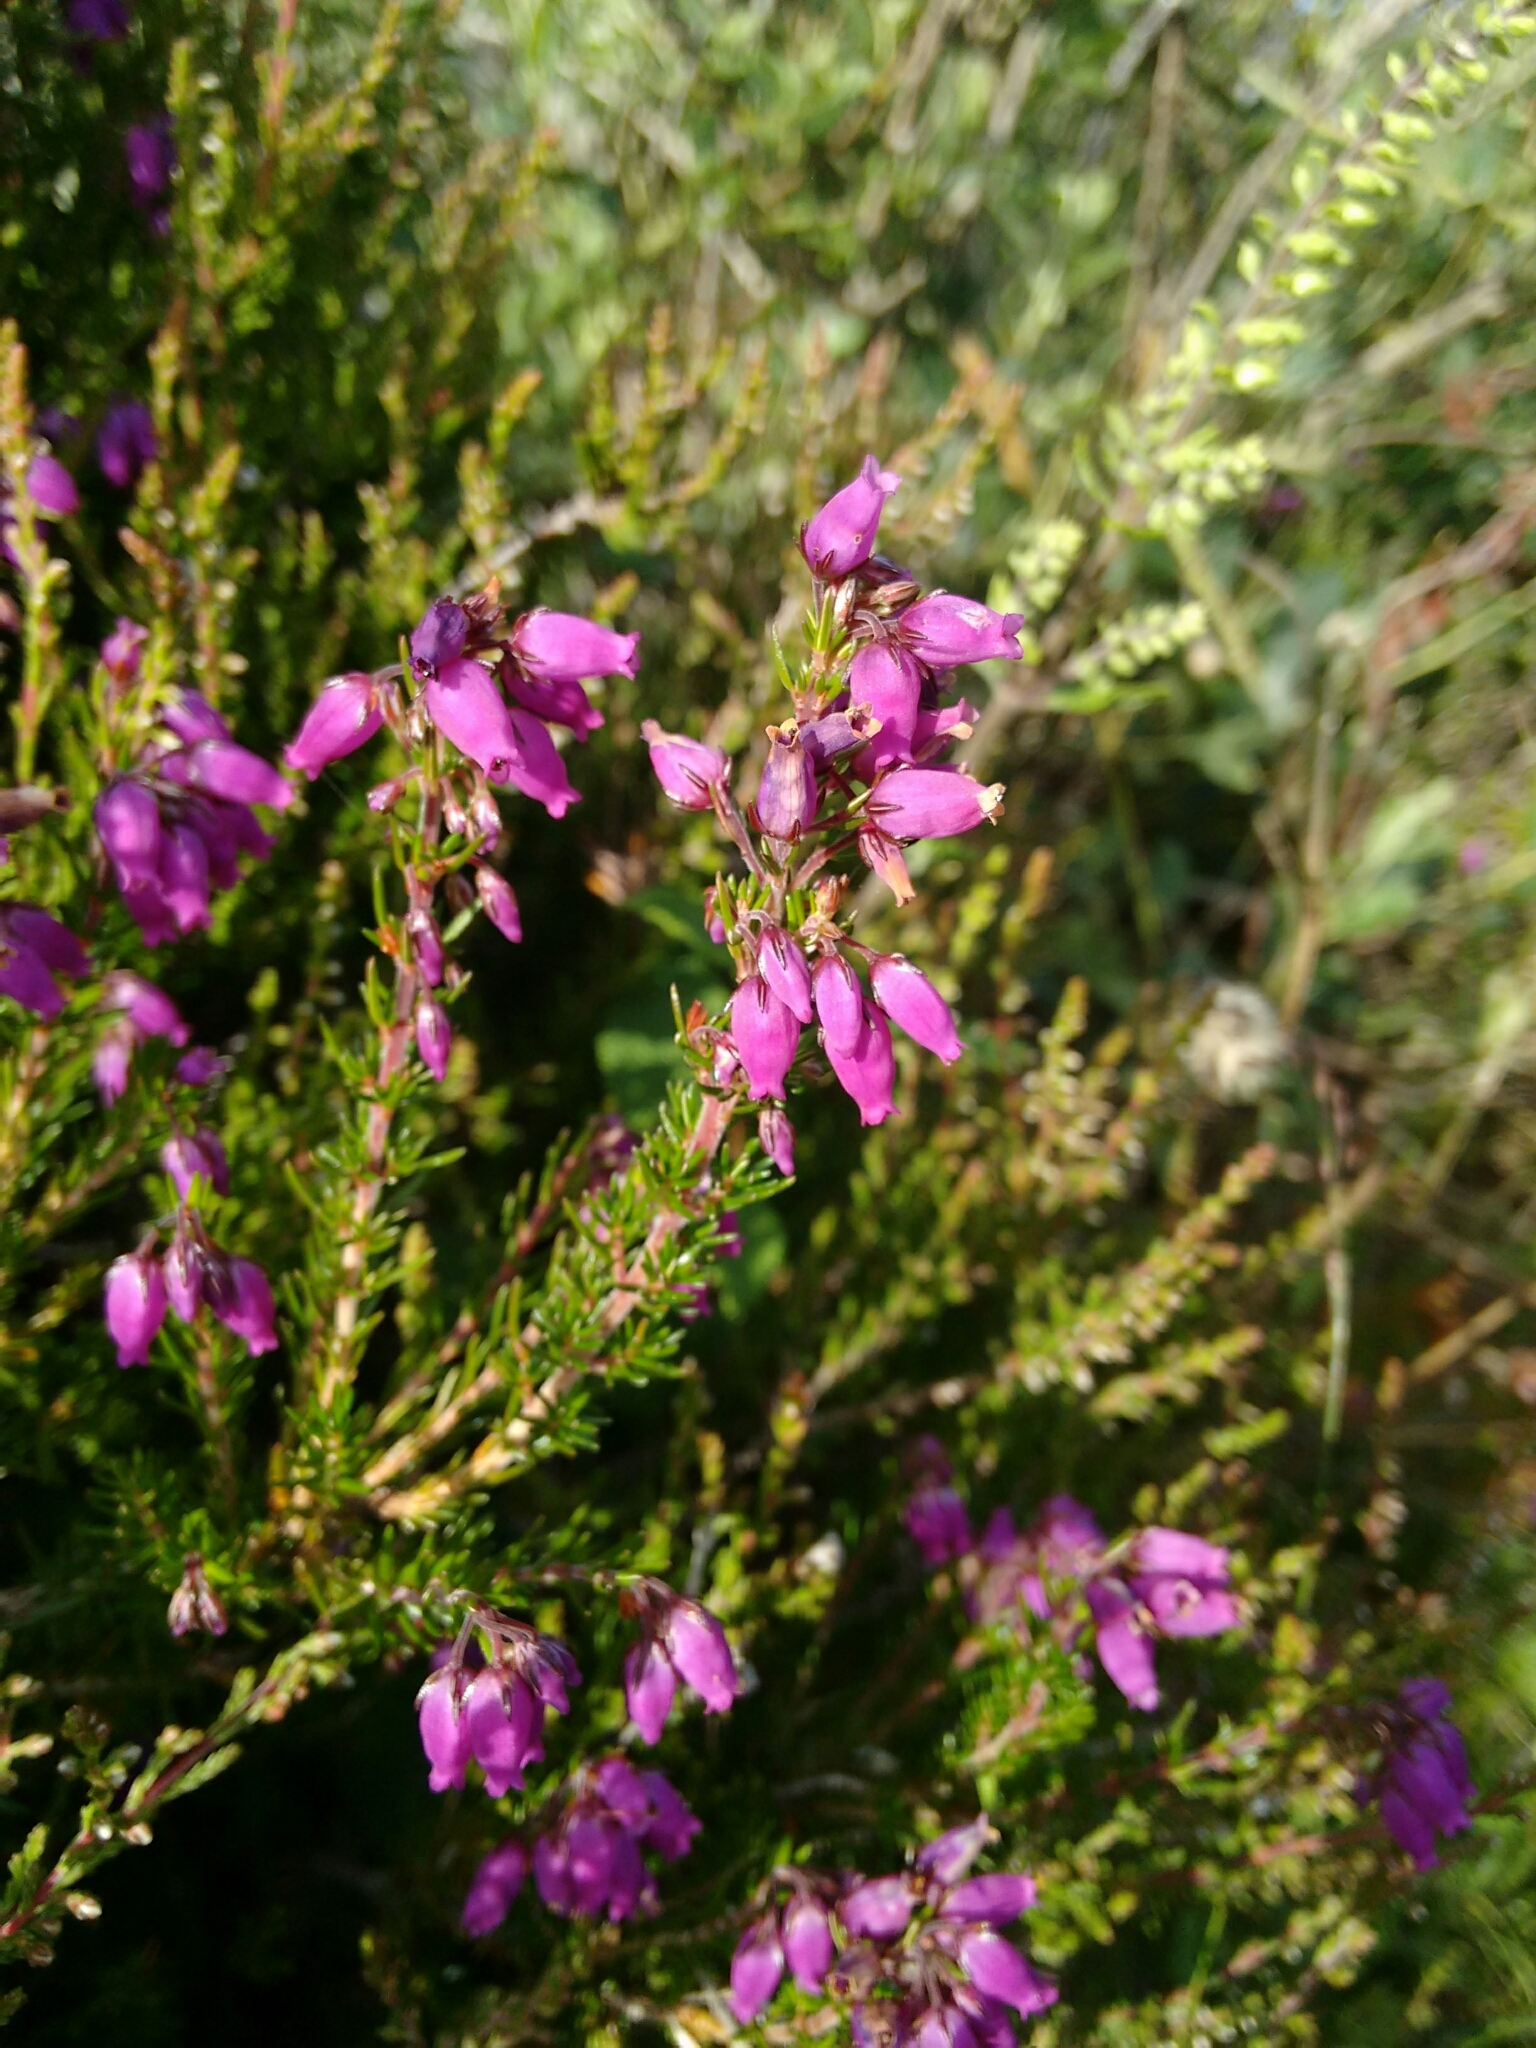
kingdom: Plantae
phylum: Tracheophyta
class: Magnoliopsida
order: Ericales
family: Ericaceae
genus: Erica
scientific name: Erica cinerea
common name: Bell heather
